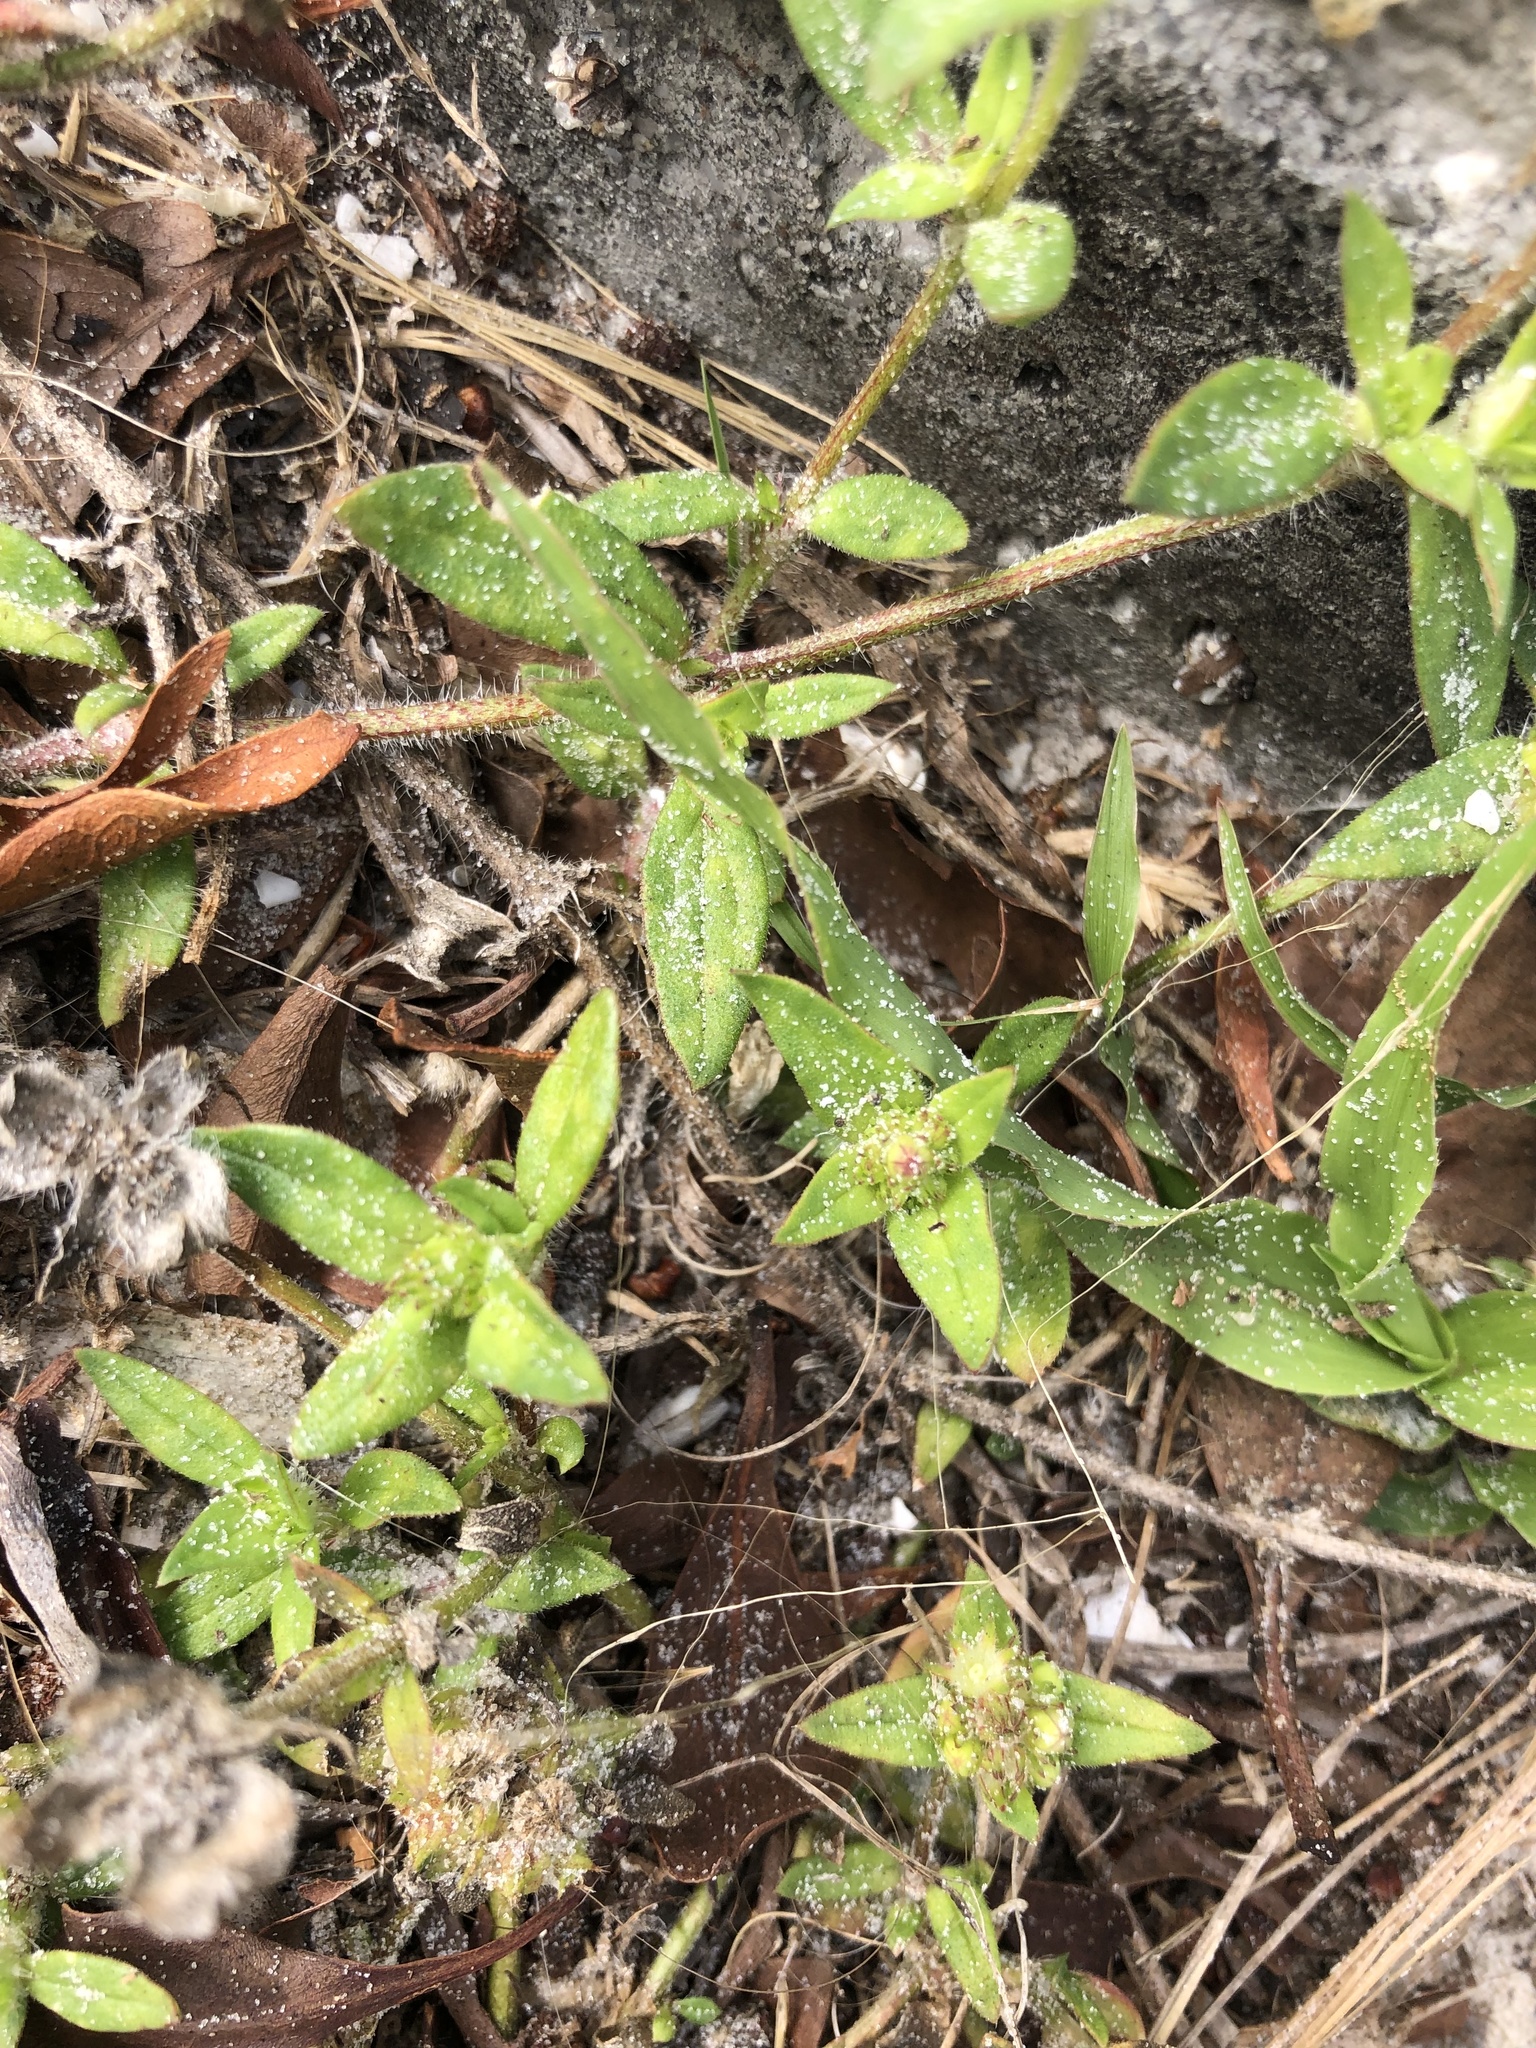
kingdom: Plantae
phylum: Tracheophyta
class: Magnoliopsida
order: Gentianales
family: Rubiaceae
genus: Richardia
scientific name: Richardia grandiflora
